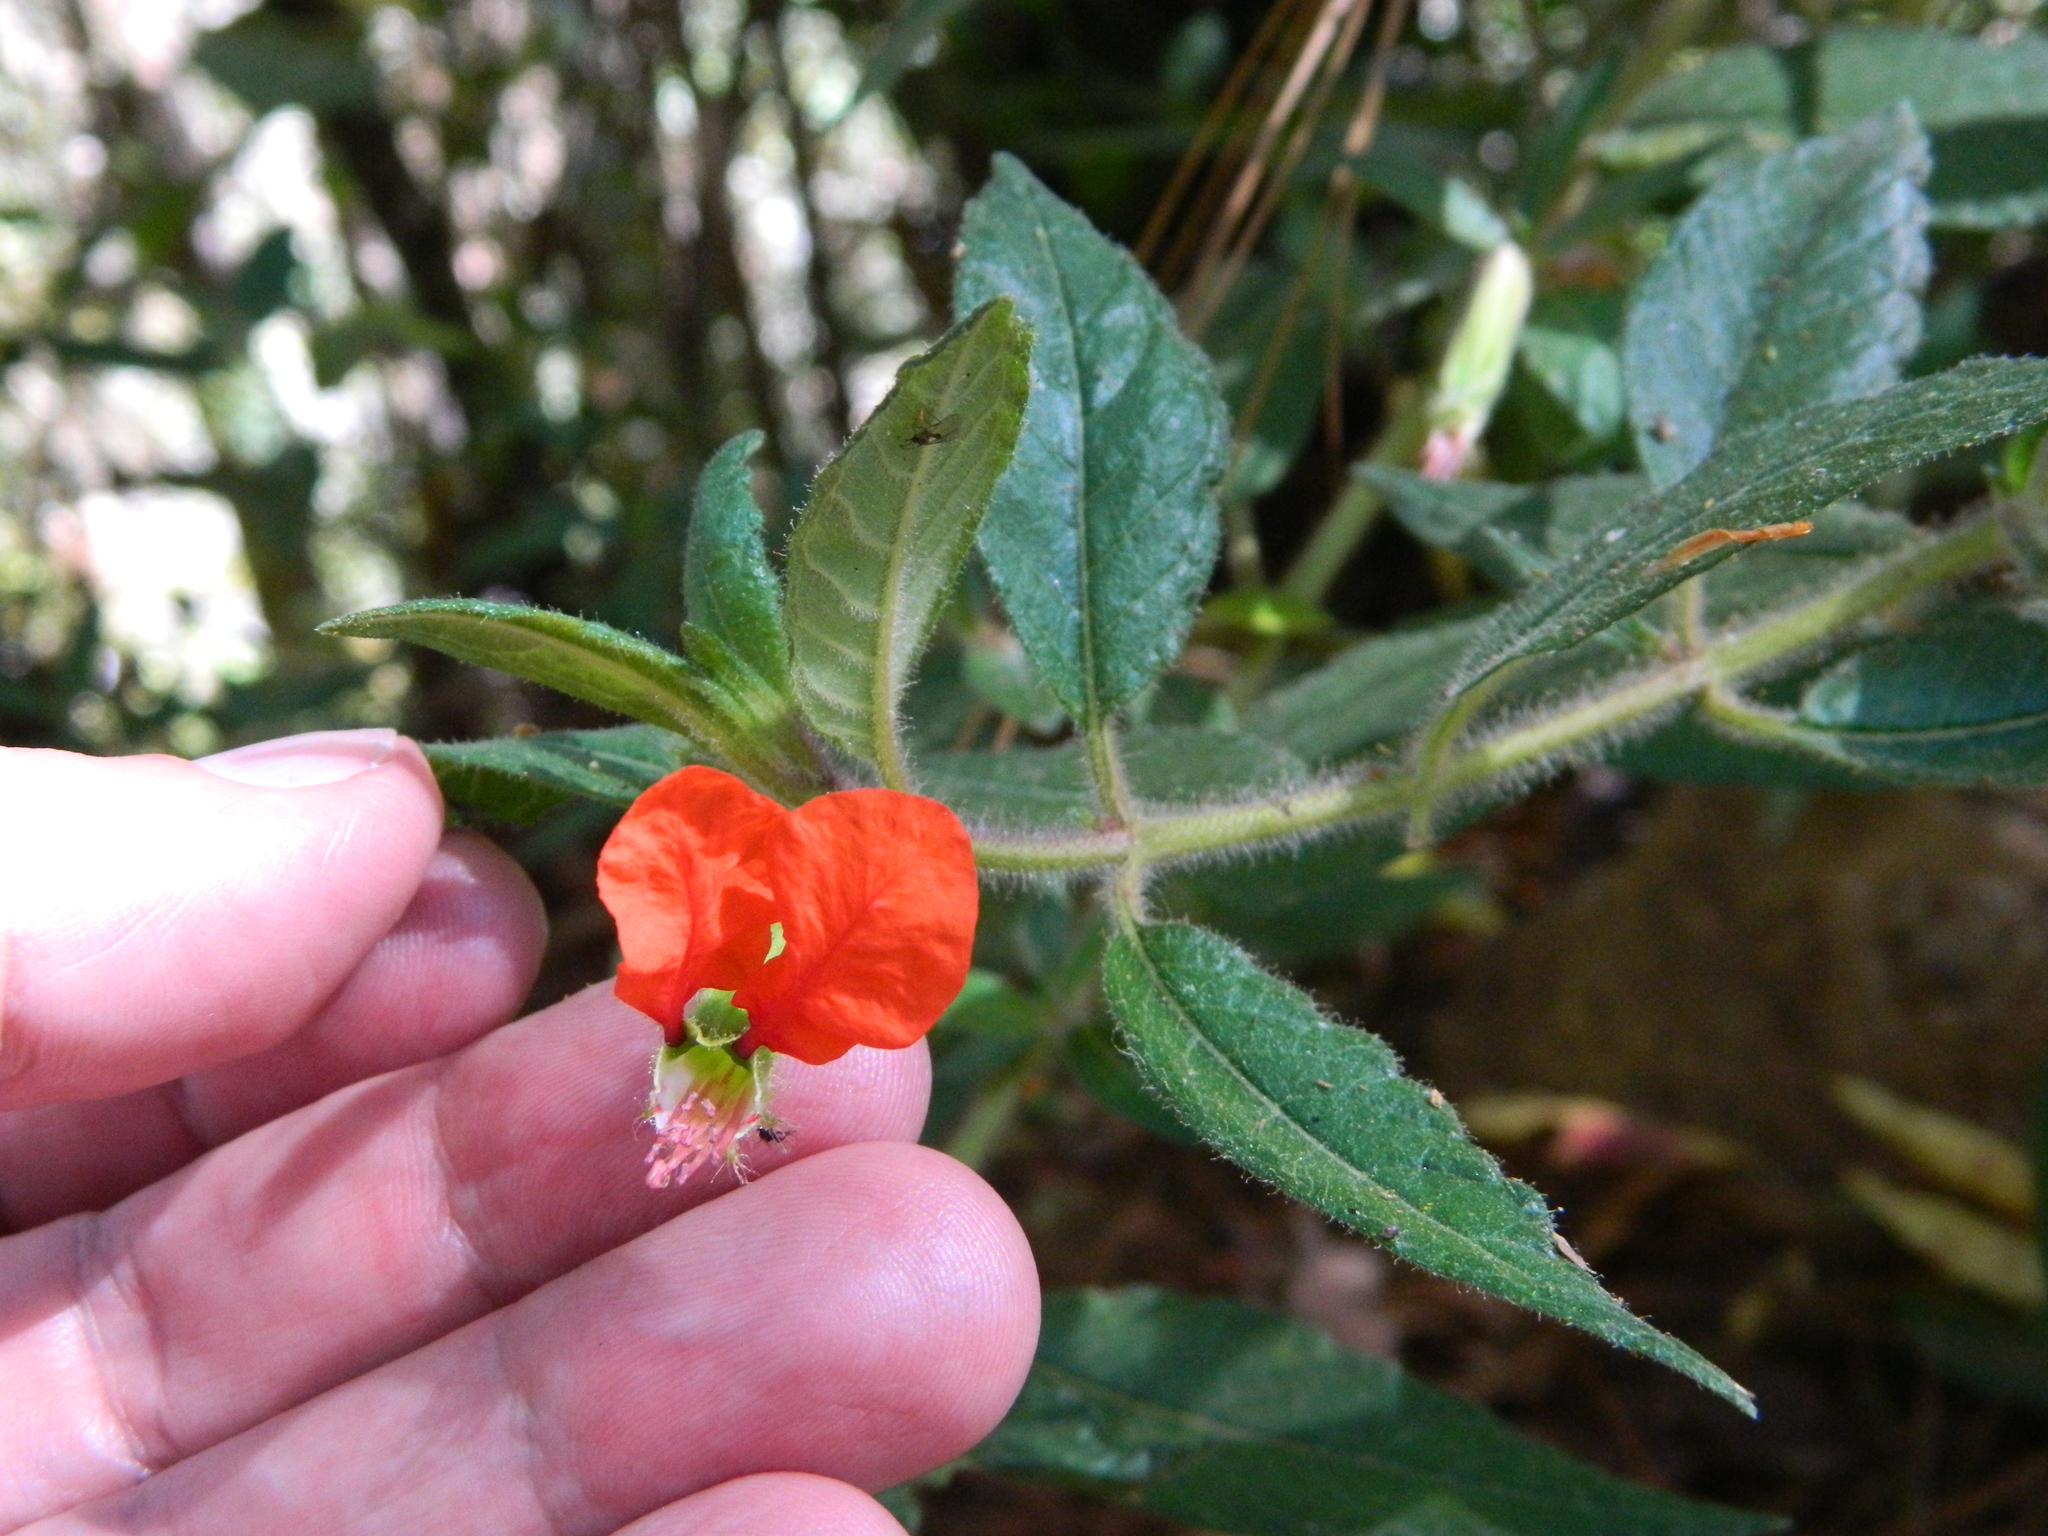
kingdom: Plantae
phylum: Tracheophyta
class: Magnoliopsida
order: Myrtales
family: Lythraceae
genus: Cuphea
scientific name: Cuphea nudicostata
